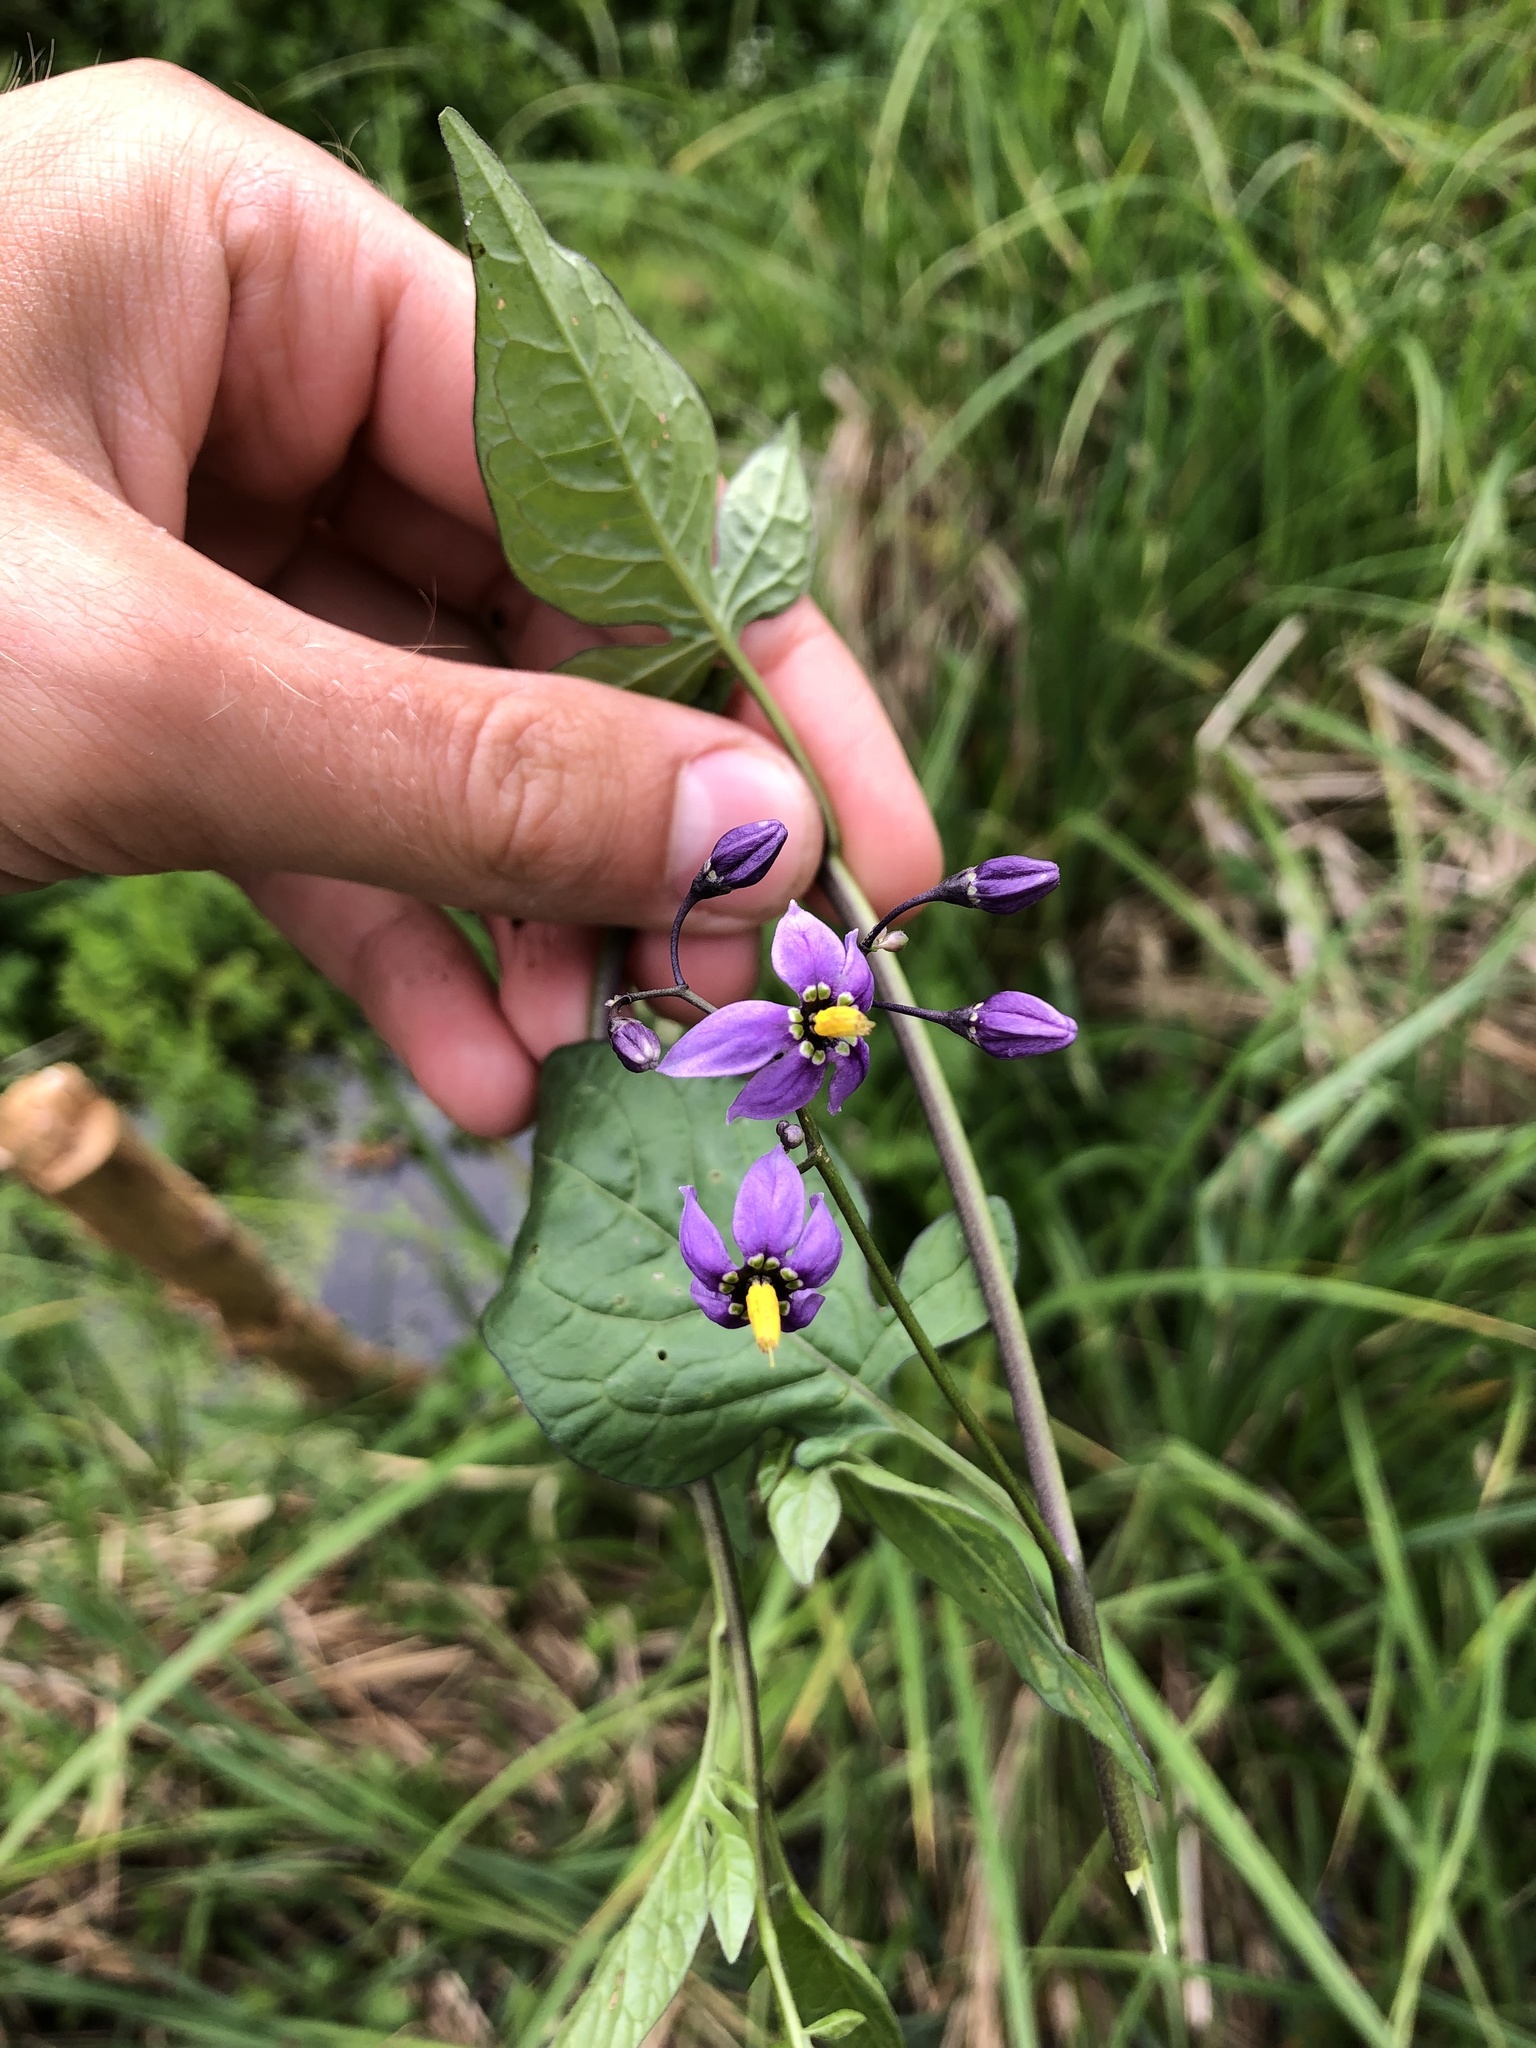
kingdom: Plantae
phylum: Tracheophyta
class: Magnoliopsida
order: Solanales
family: Solanaceae
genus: Solanum
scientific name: Solanum dulcamara
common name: Climbing nightshade
